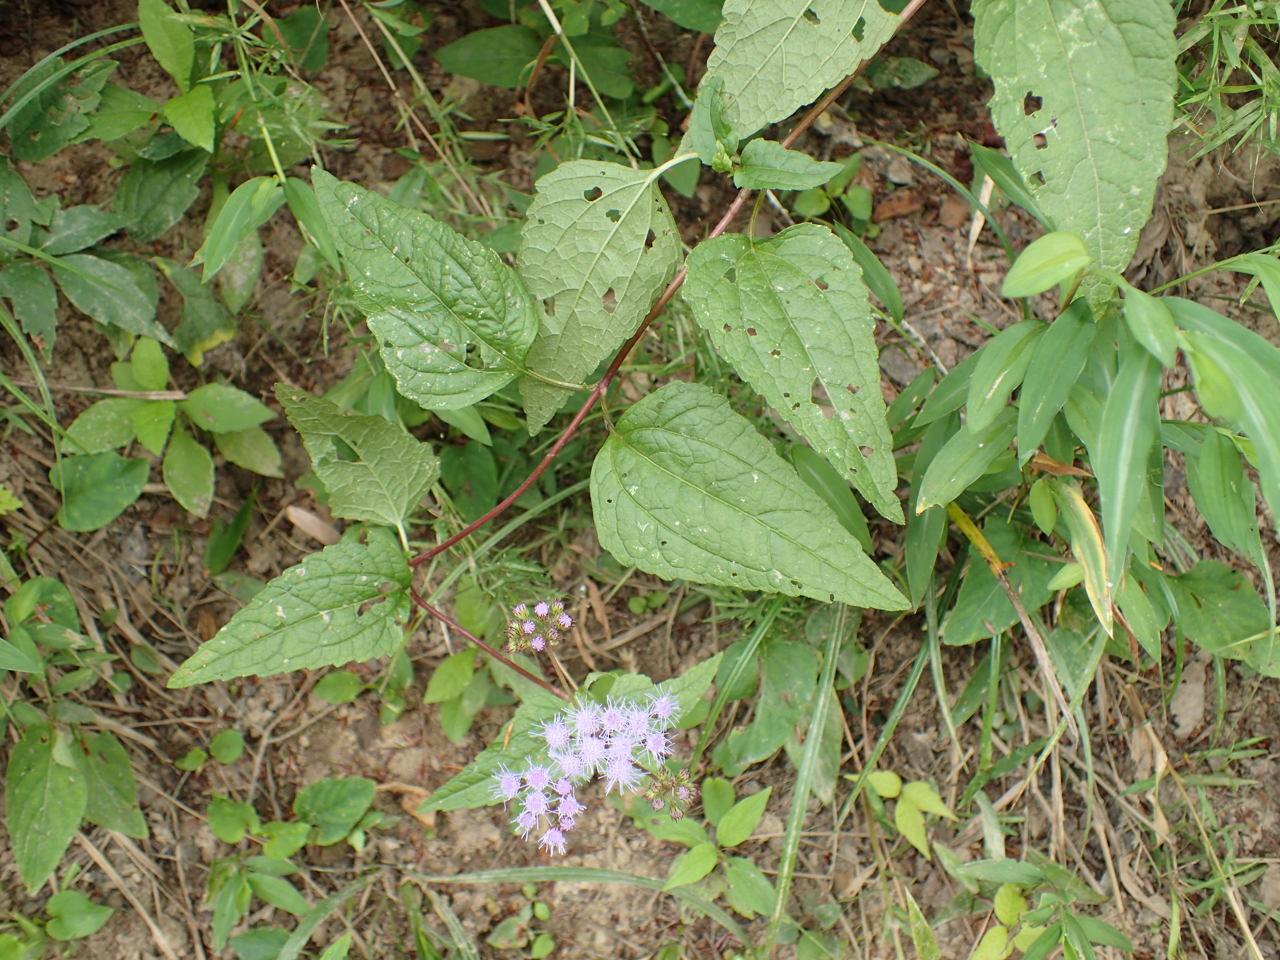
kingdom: Plantae
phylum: Tracheophyta
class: Magnoliopsida
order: Asterales
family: Asteraceae
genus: Conoclinium
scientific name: Conoclinium coelestinum
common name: Blue mistflower
